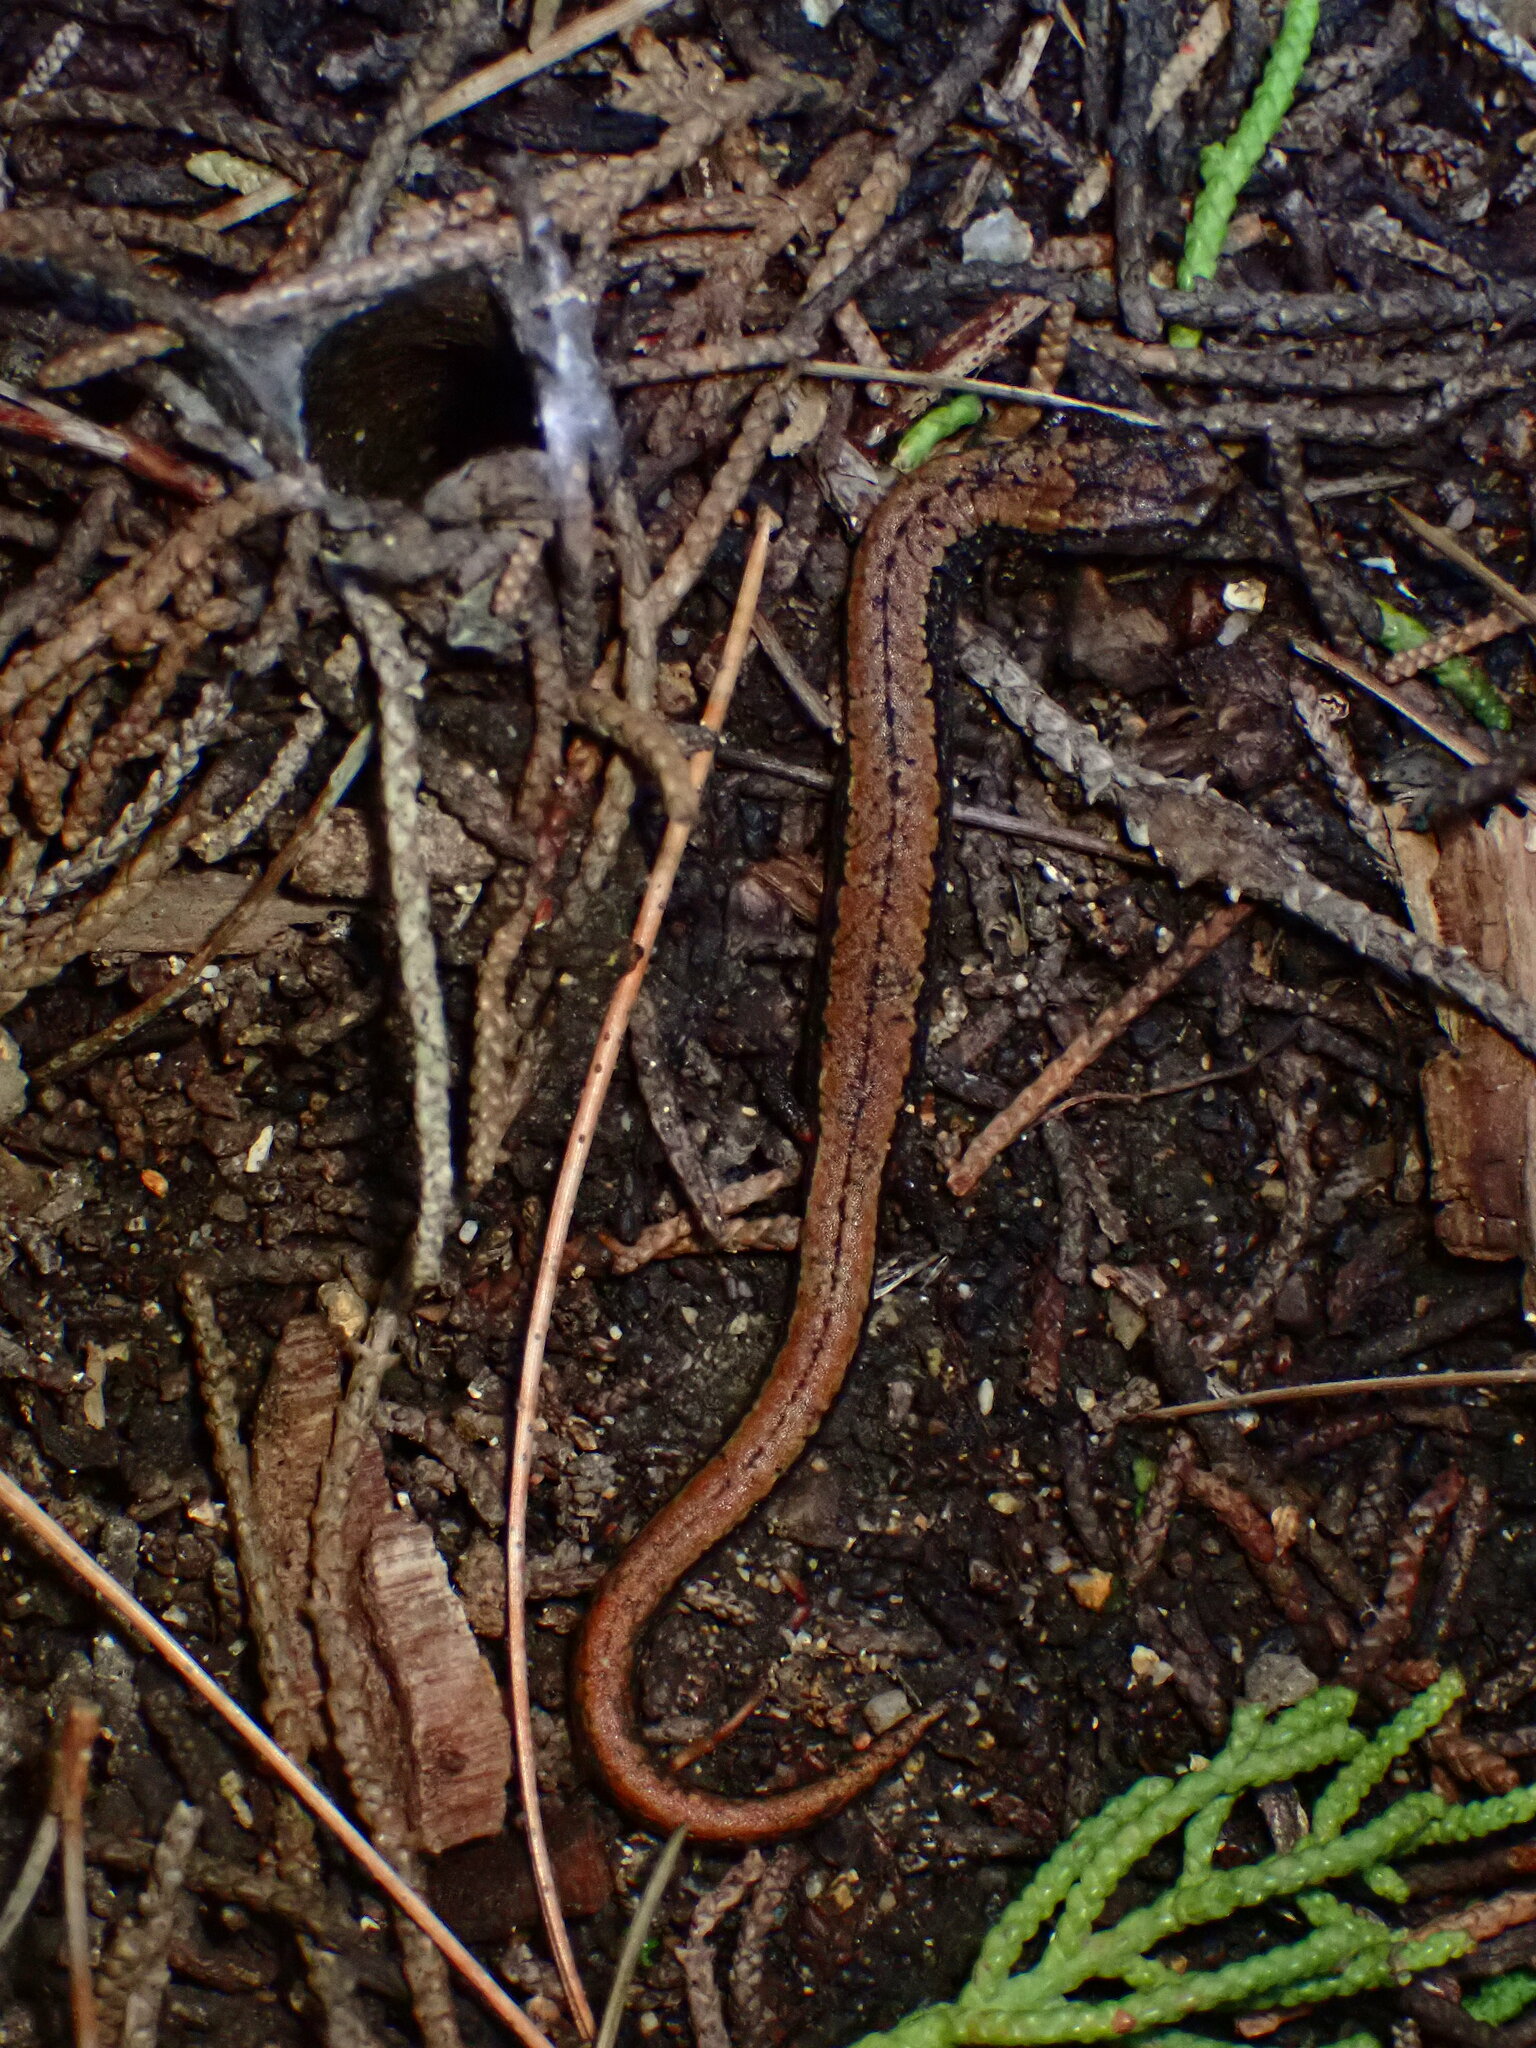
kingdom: Animalia
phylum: Chordata
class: Amphibia
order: Caudata
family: Plethodontidae
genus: Batrachoseps
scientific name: Batrachoseps attenuatus
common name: California slender salamander
